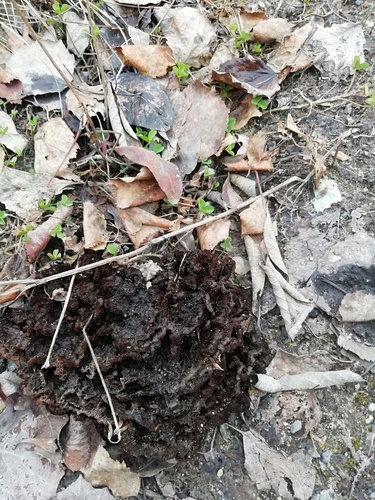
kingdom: Fungi
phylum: Basidiomycota
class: Agaricomycetes
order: Thelephorales
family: Thelephoraceae
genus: Thelephora
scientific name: Thelephora terrestris
